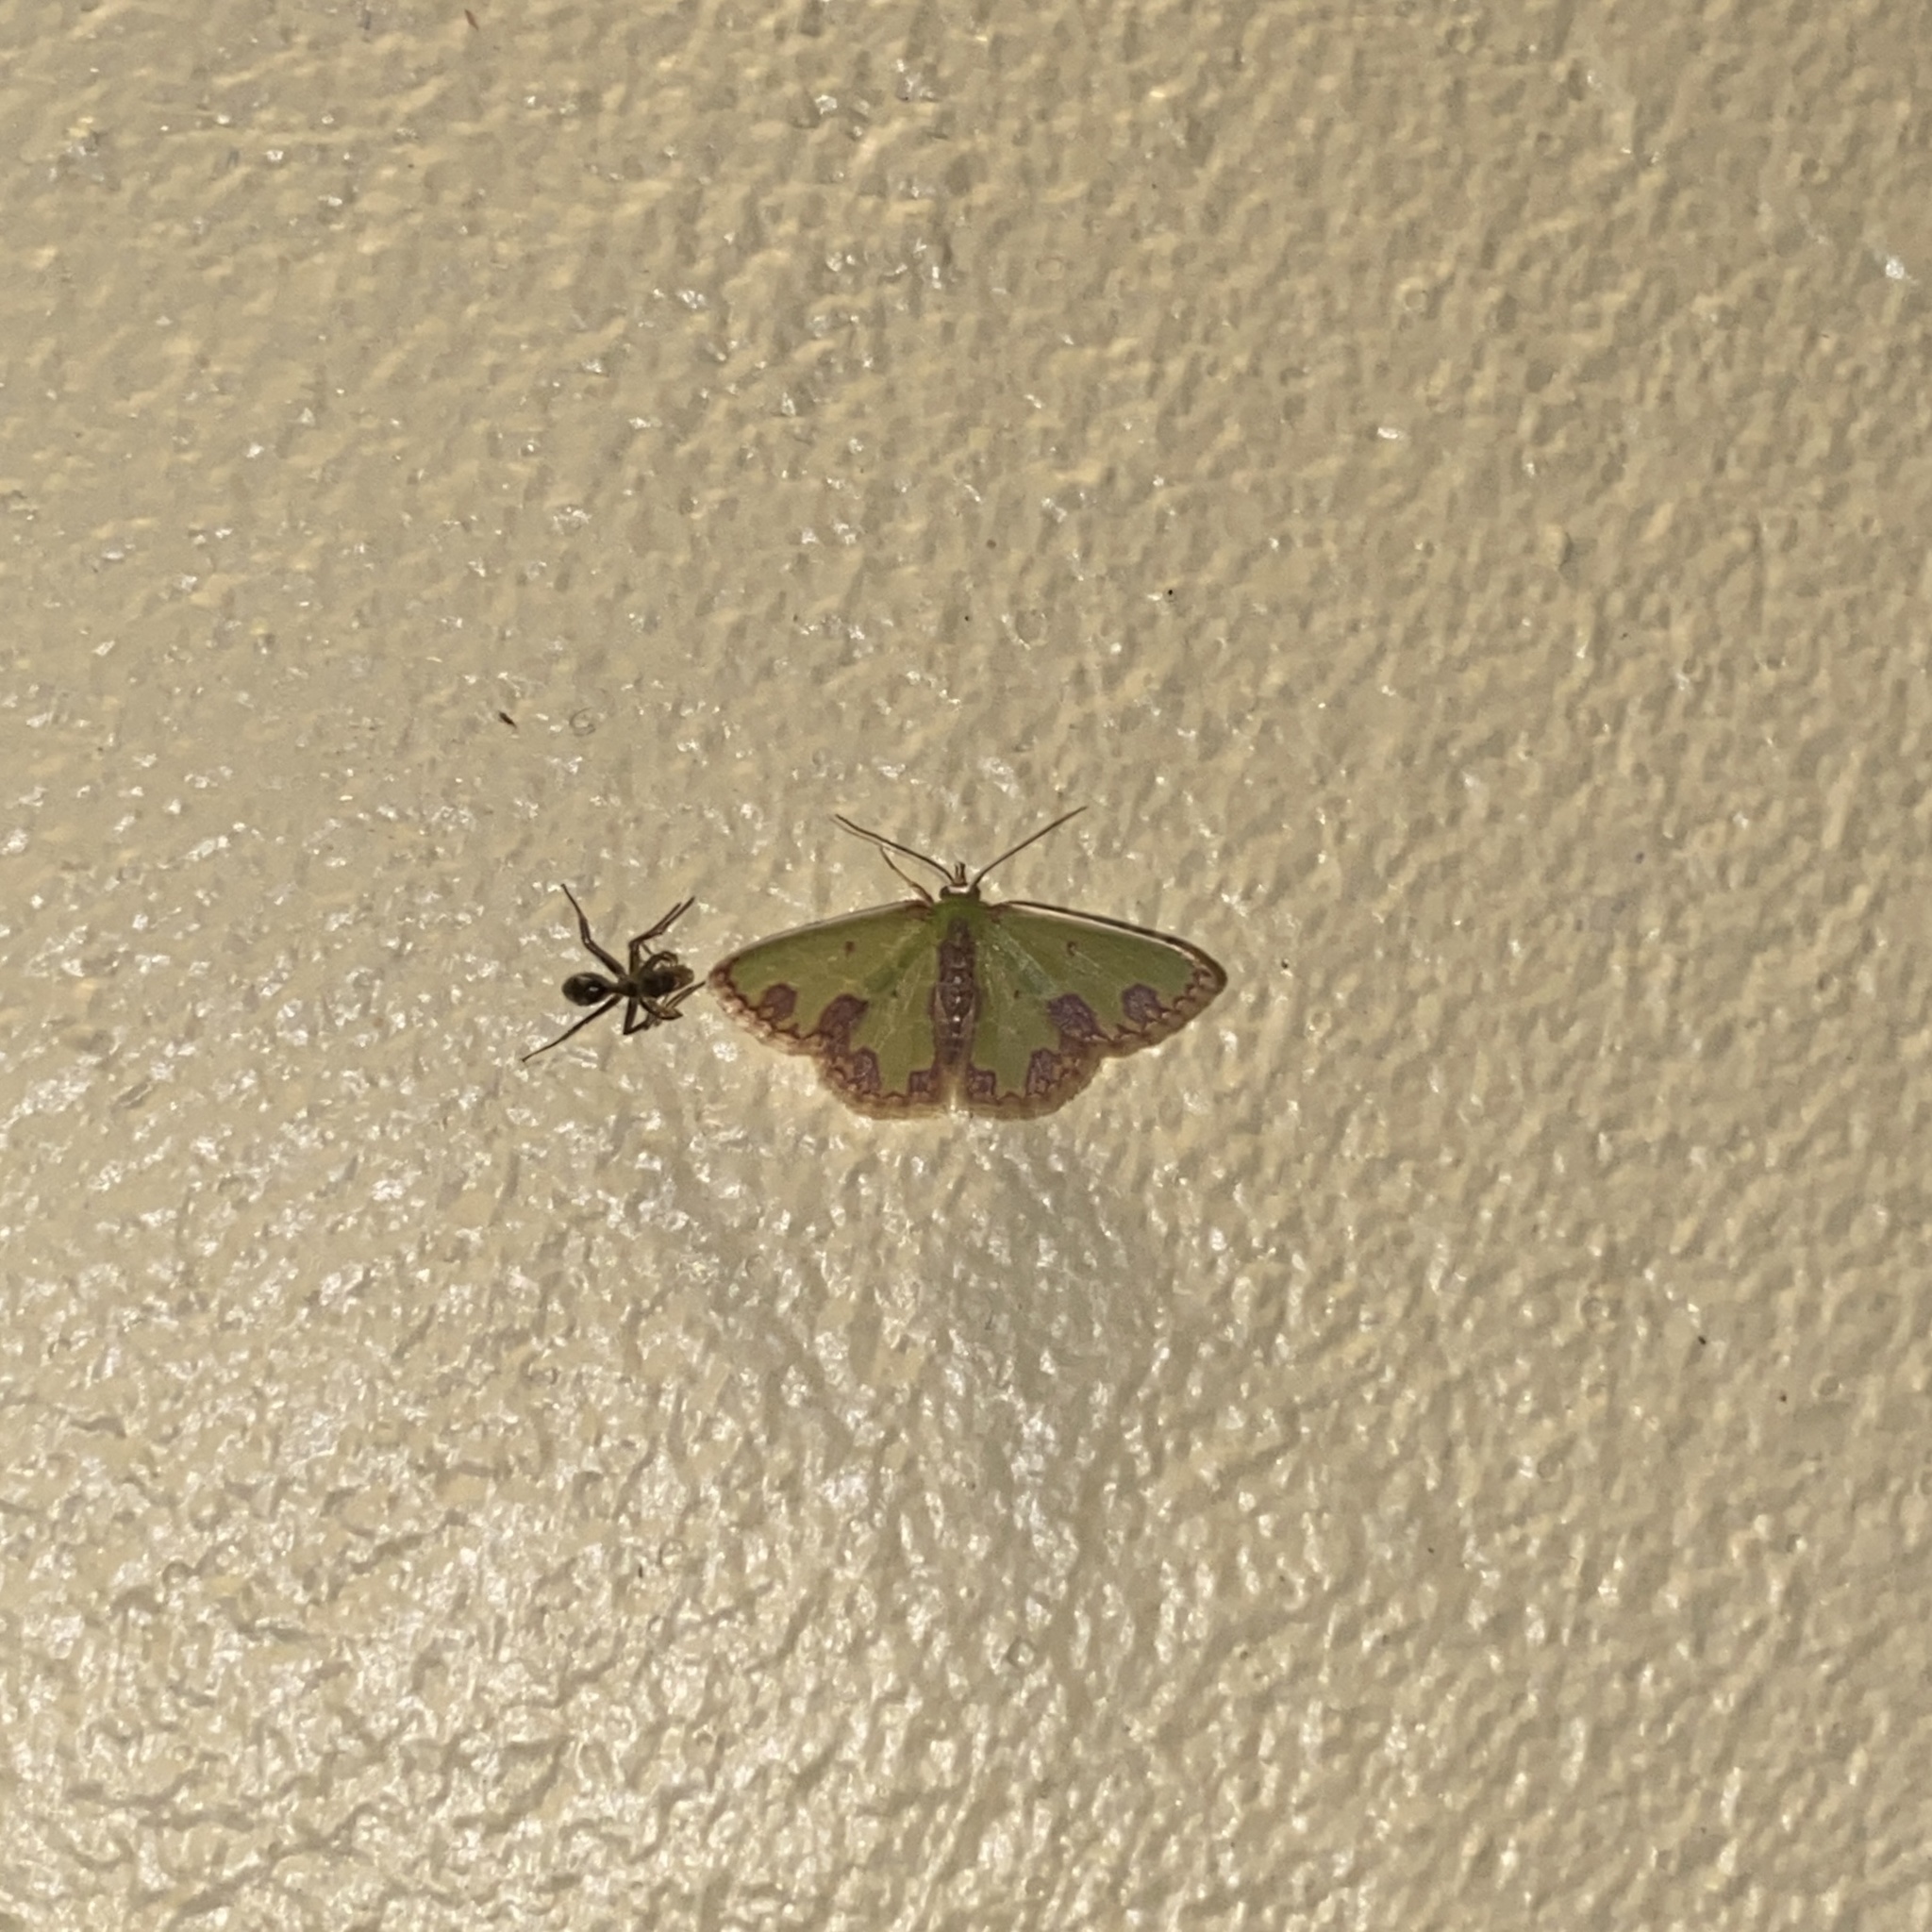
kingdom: Animalia
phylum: Arthropoda
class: Insecta
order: Lepidoptera
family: Geometridae
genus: Synchlora
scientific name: Synchlora gerularia
